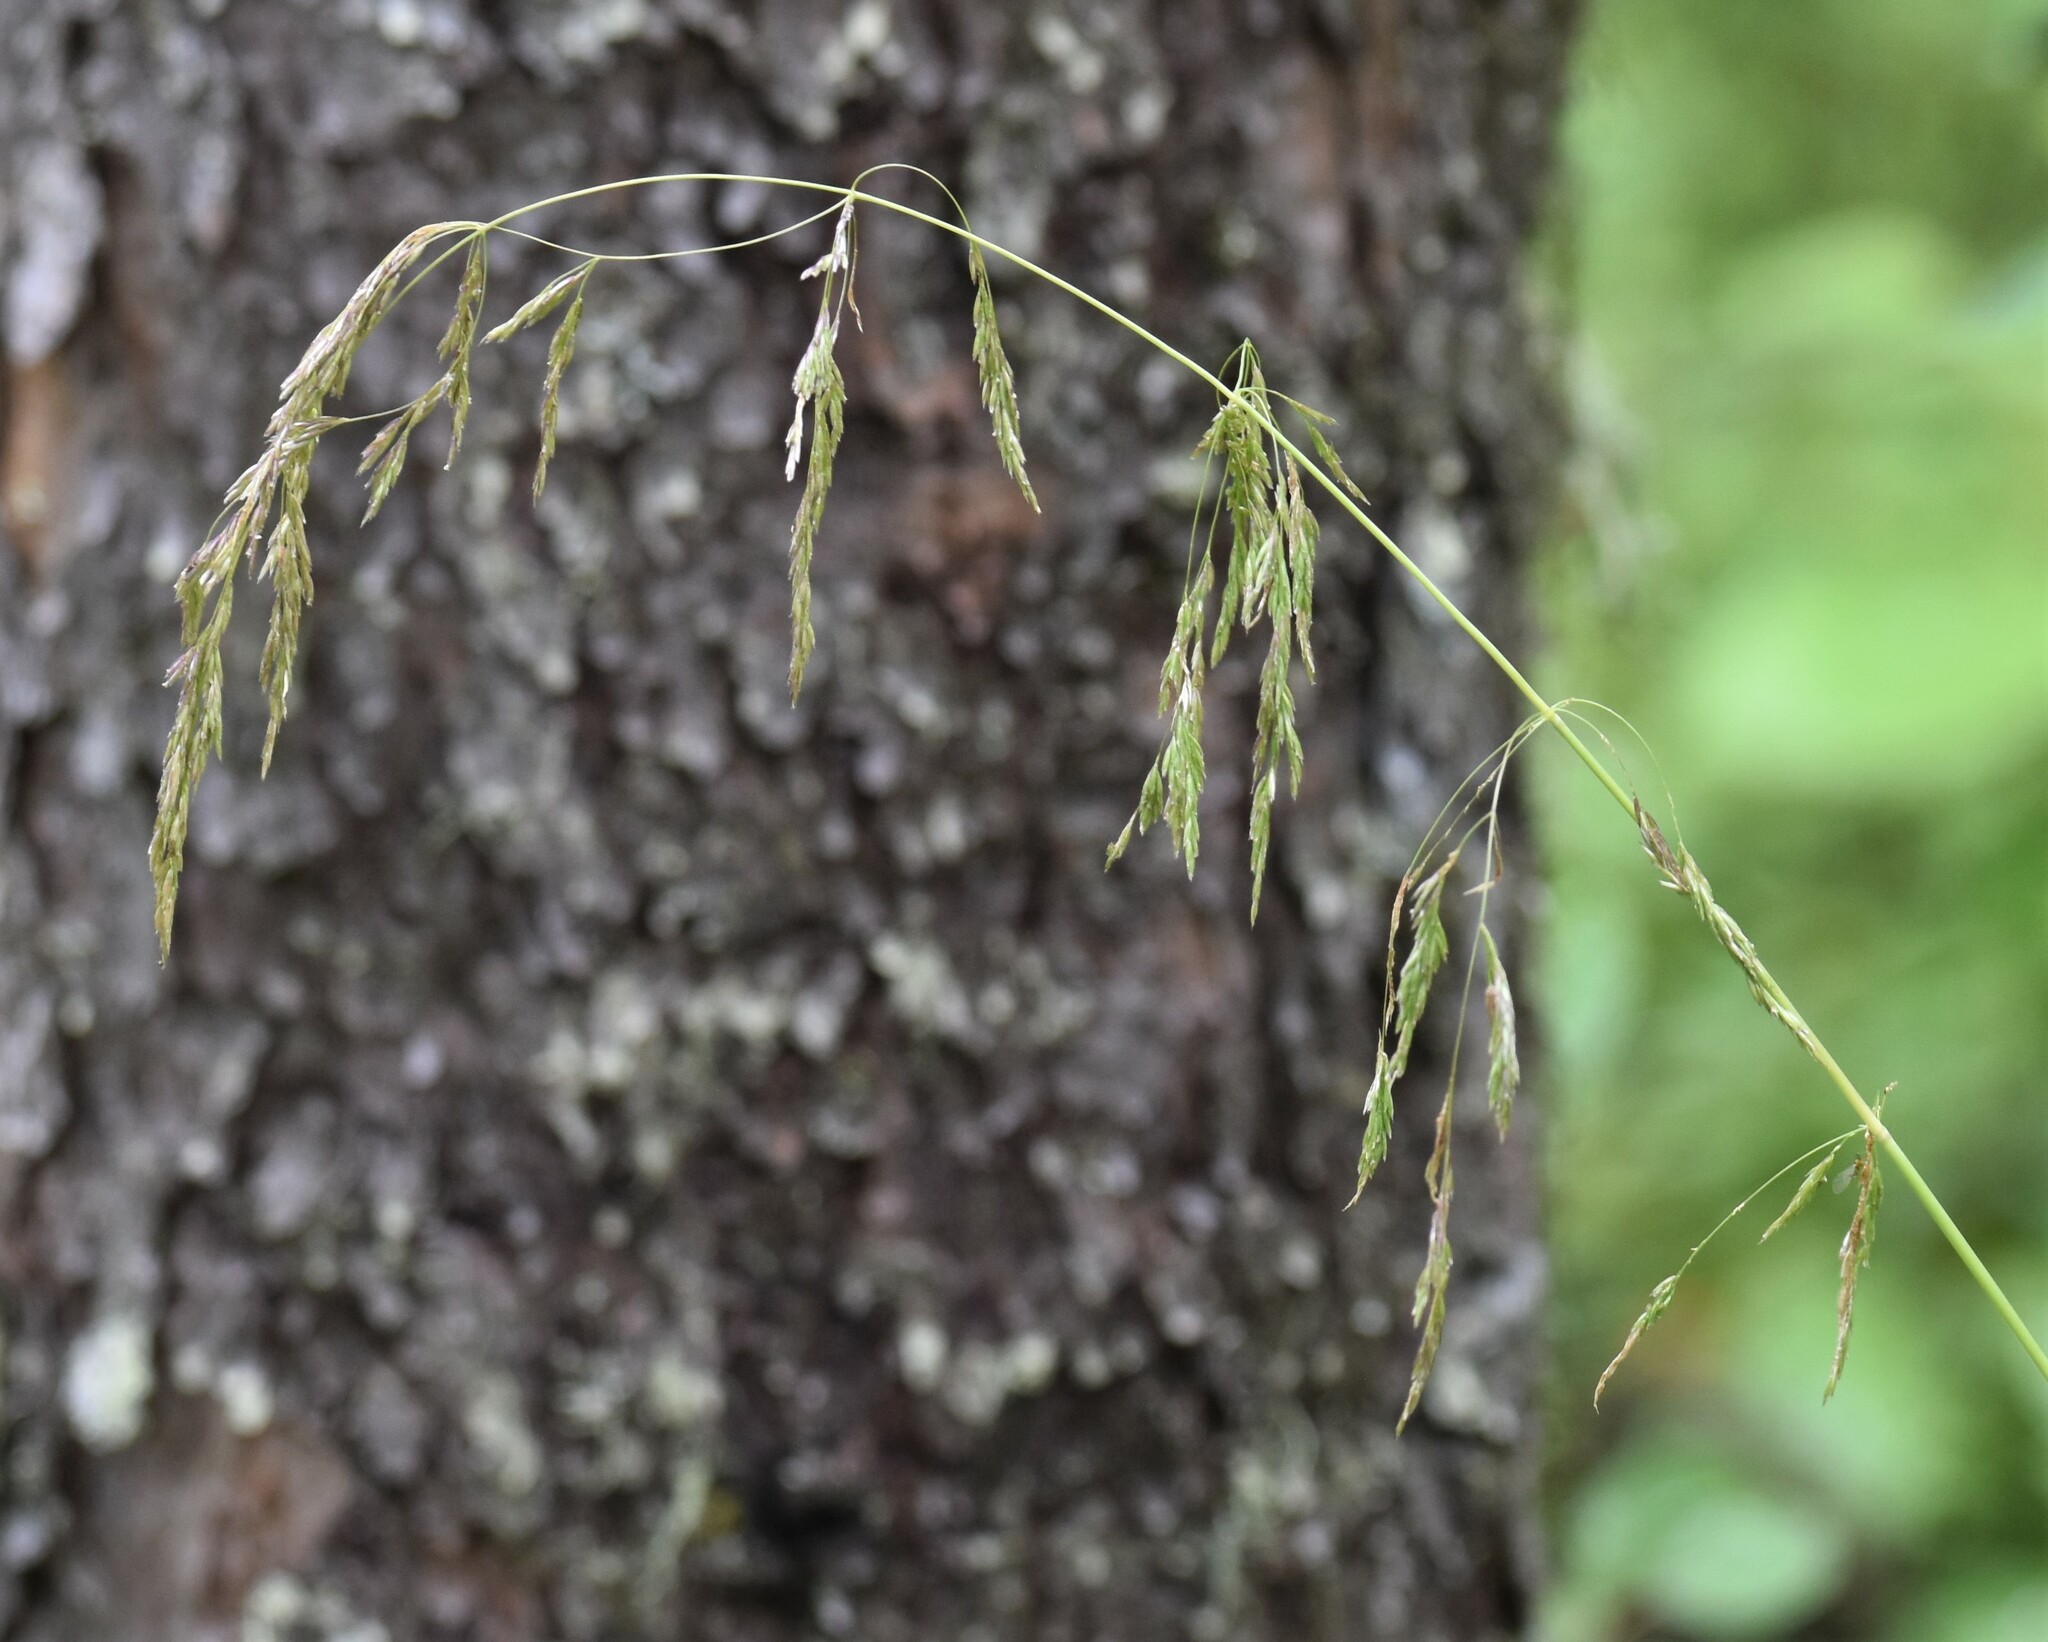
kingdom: Plantae
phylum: Tracheophyta
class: Liliopsida
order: Poales
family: Poaceae
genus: Cinna
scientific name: Cinna latifolia
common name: Drooping woodreed
